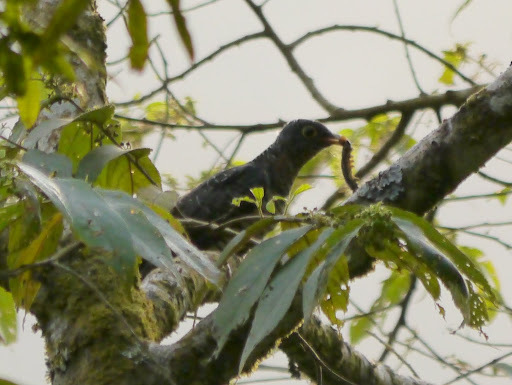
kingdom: Animalia
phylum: Chordata
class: Aves
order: Cuculiformes
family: Cuculidae
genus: Cuculus
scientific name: Cuculus solitarius
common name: Red-chested cuckoo
